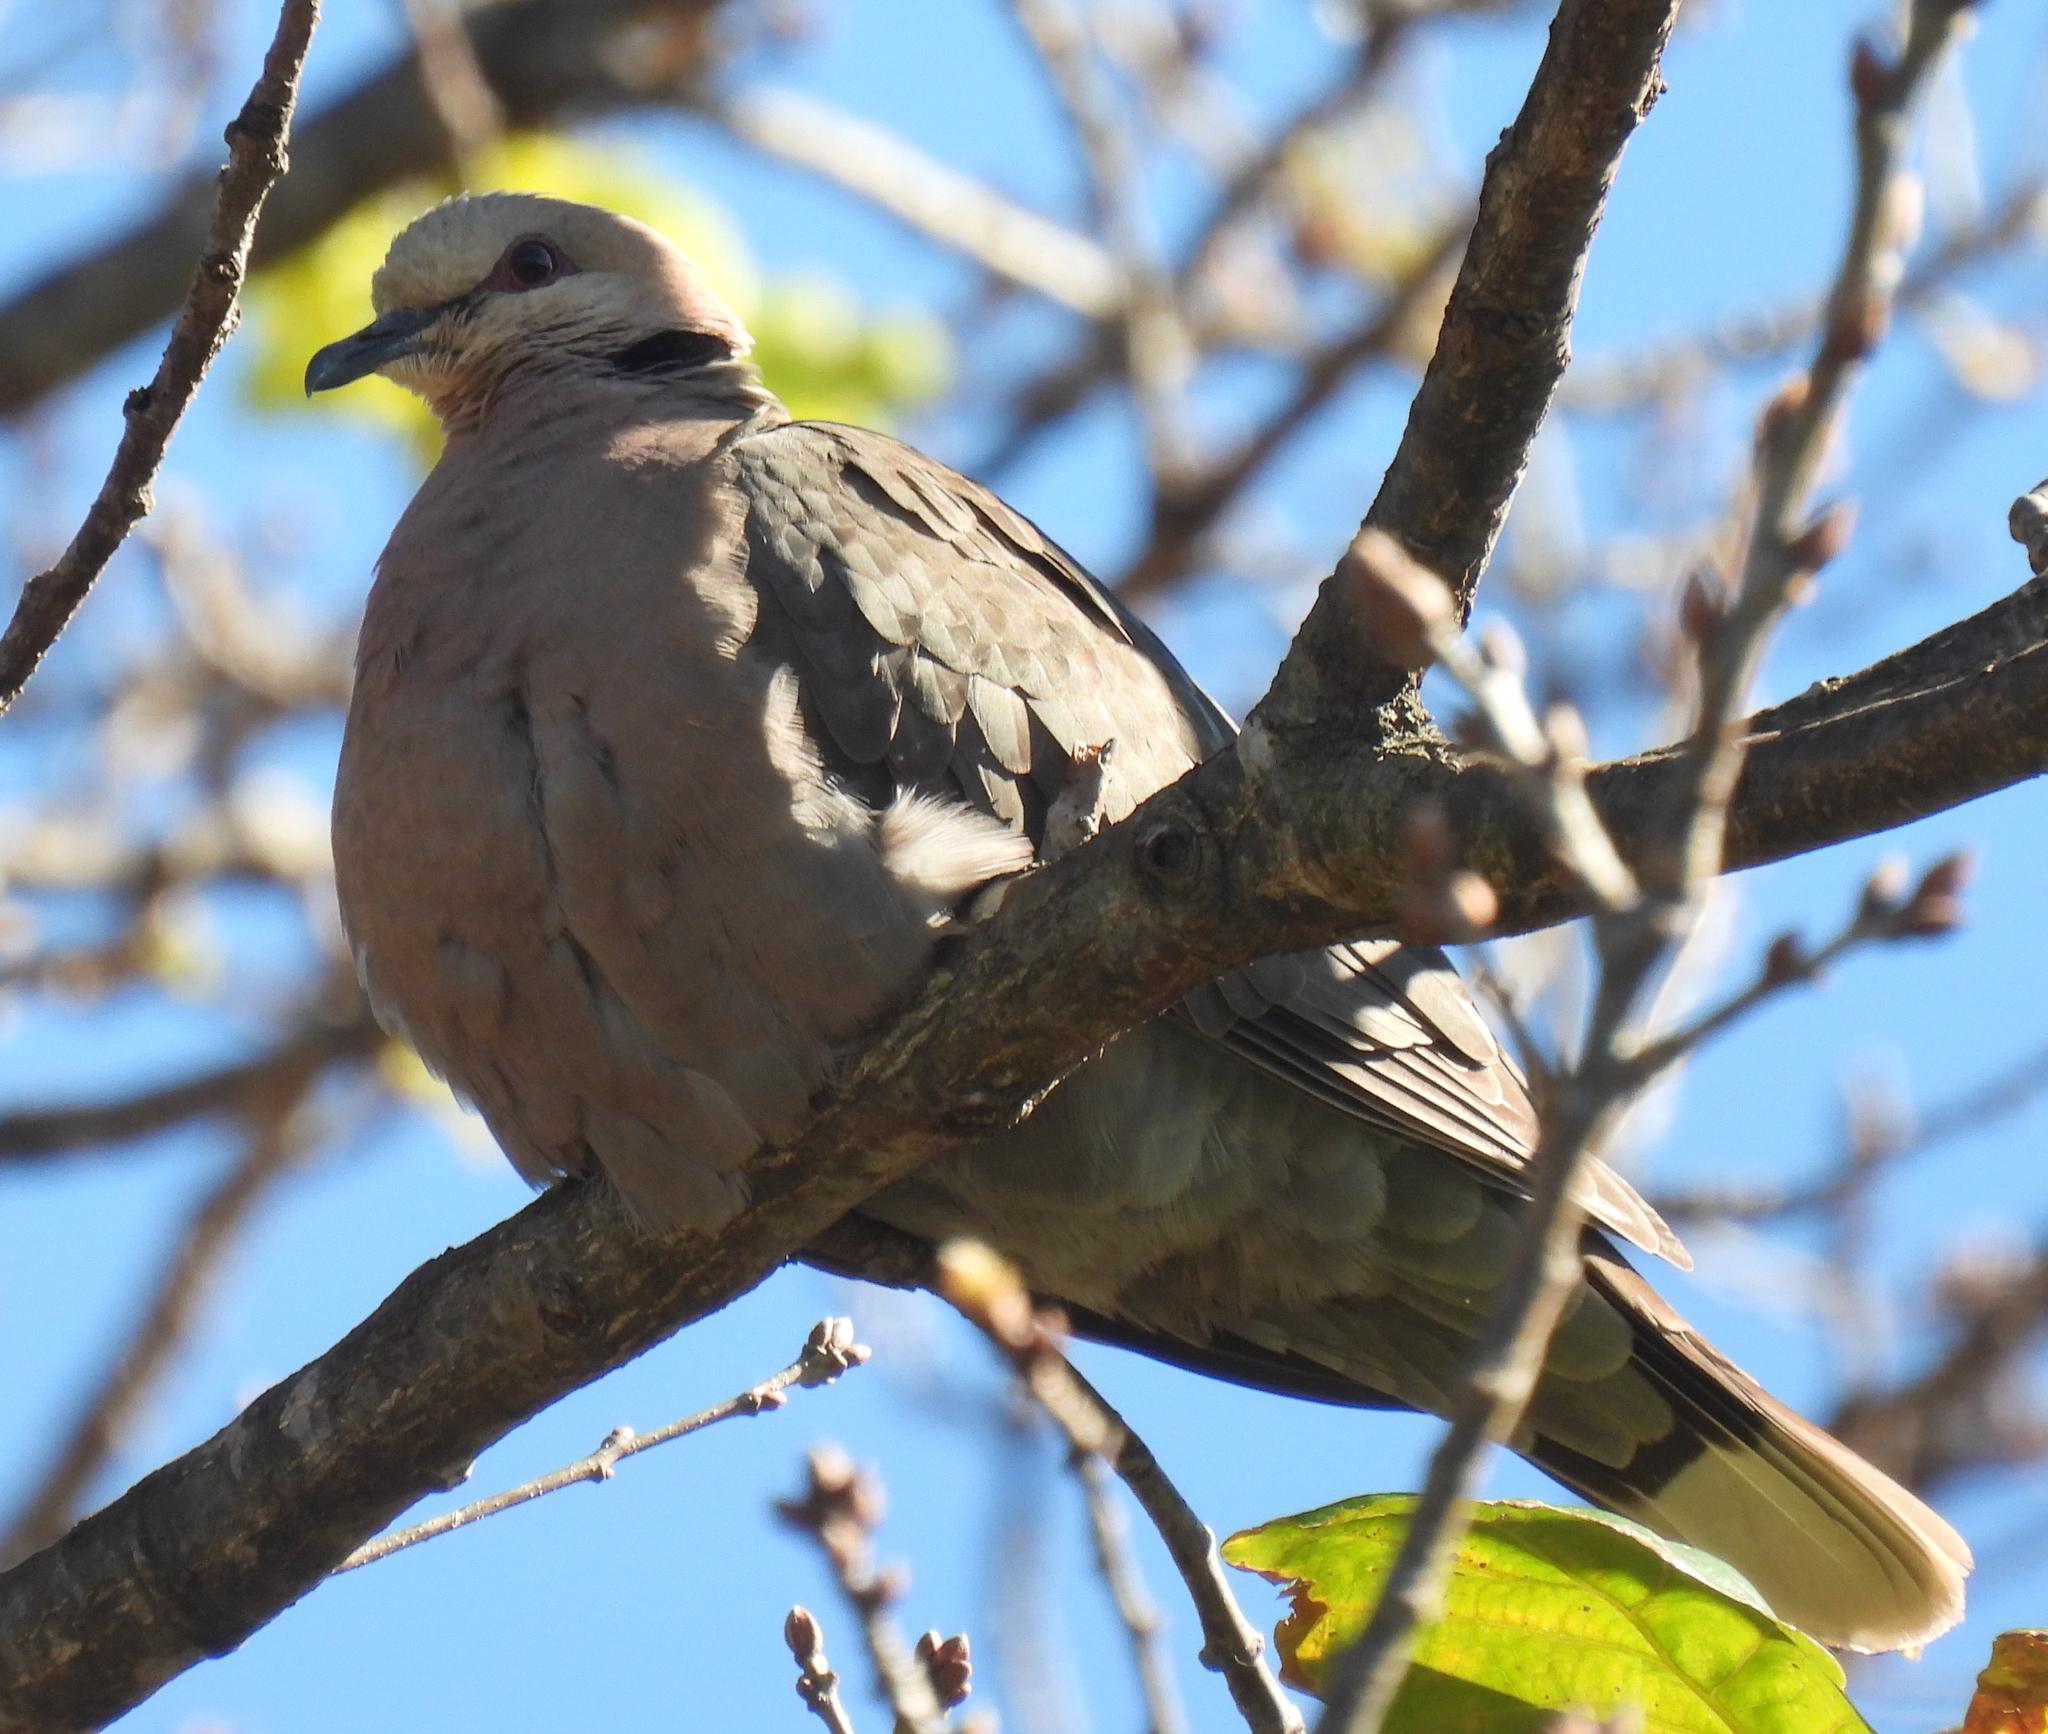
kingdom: Animalia
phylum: Chordata
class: Aves
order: Columbiformes
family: Columbidae
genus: Streptopelia
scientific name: Streptopelia semitorquata
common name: Red-eyed dove
